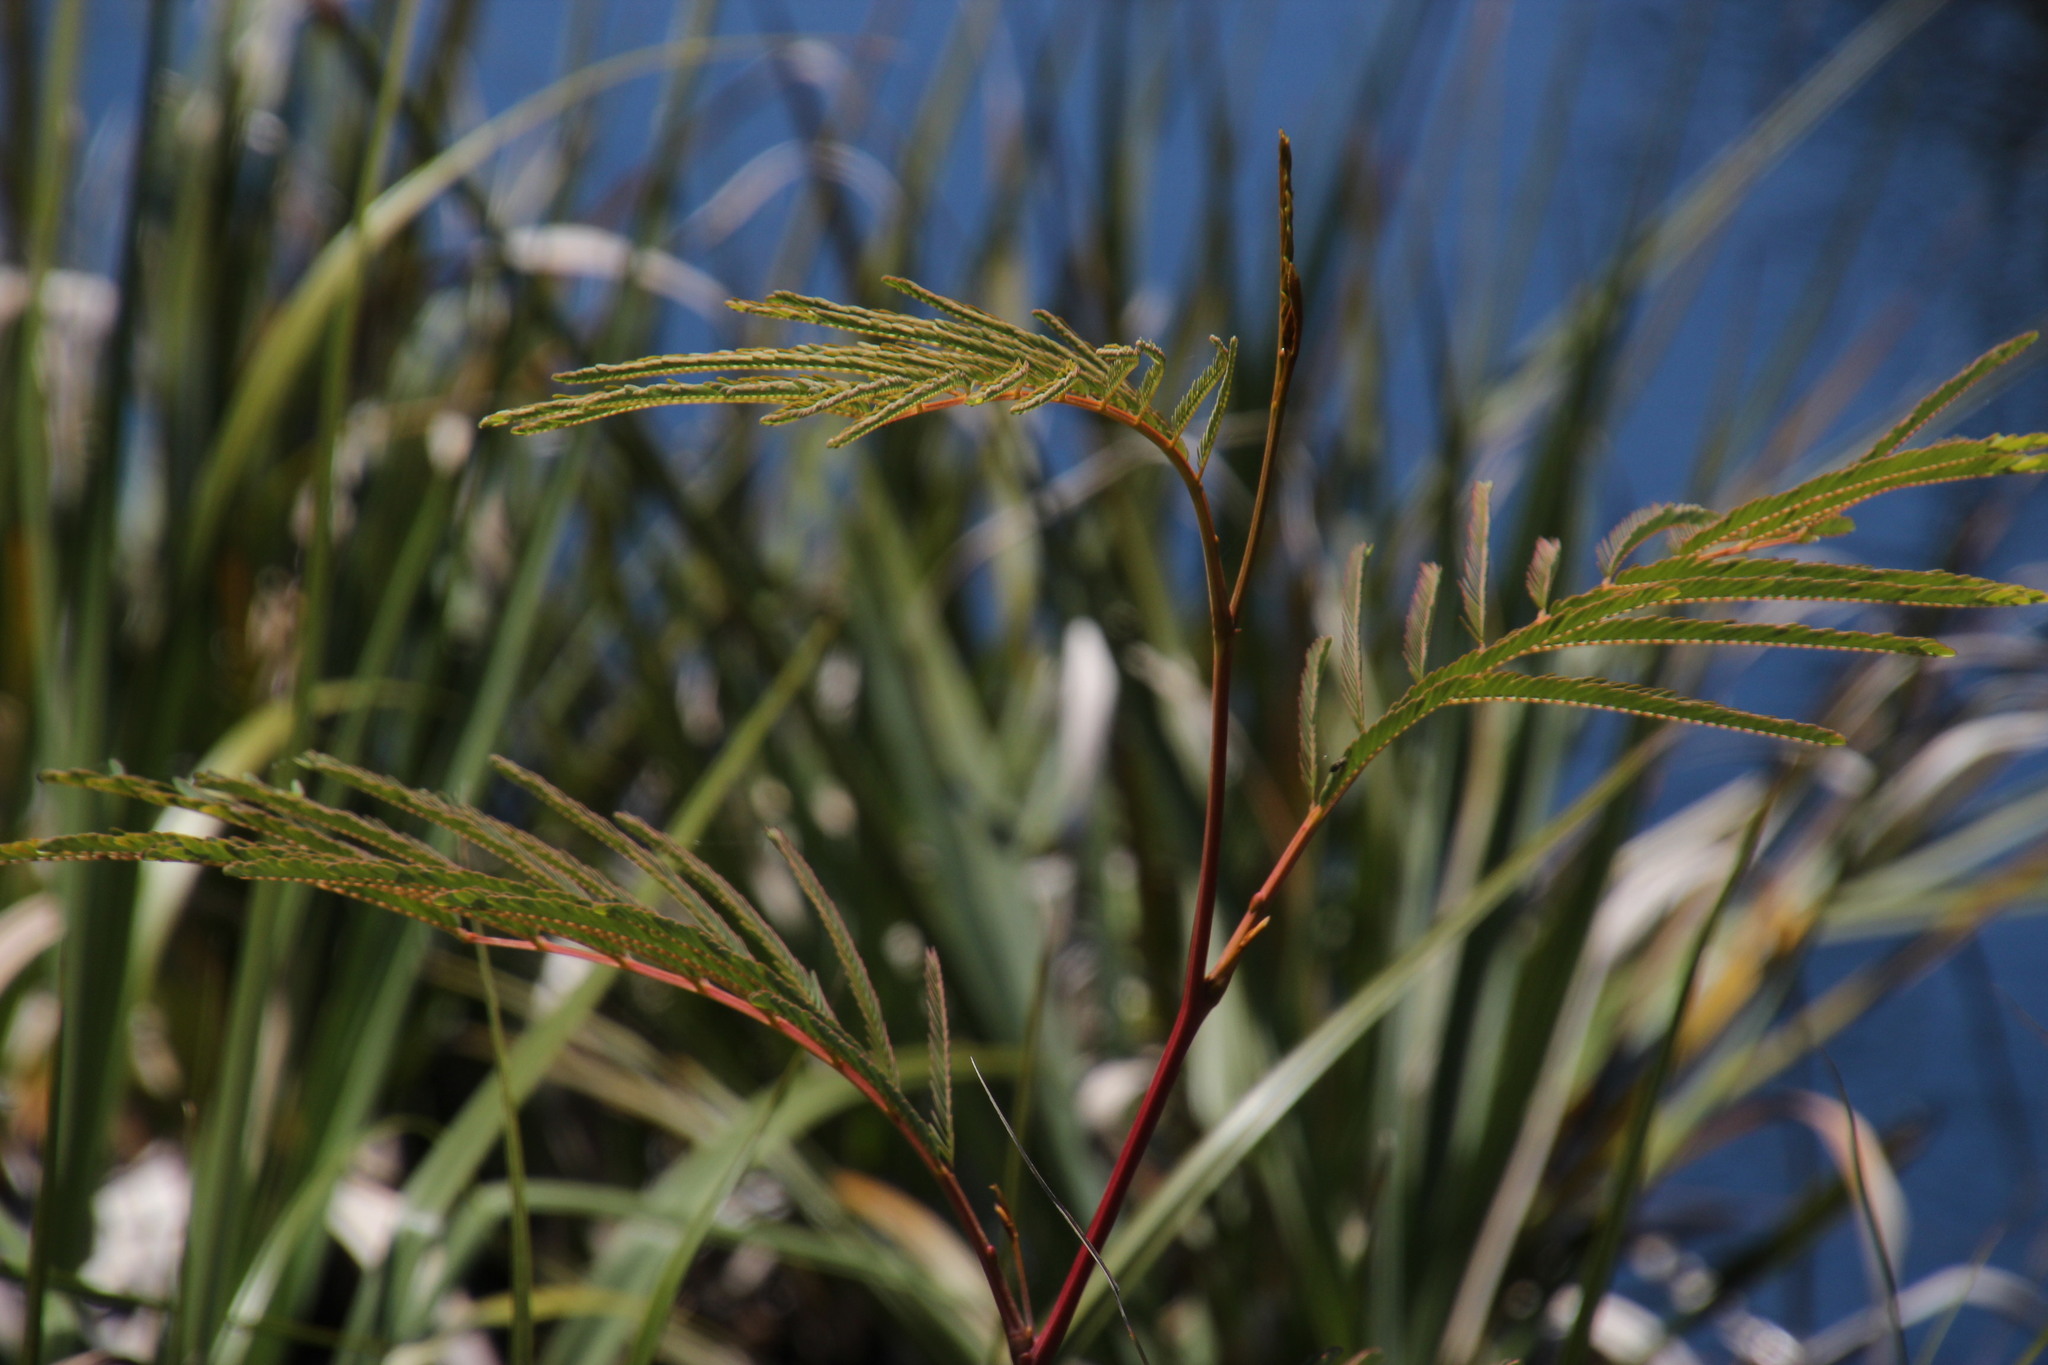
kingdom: Plantae
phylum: Tracheophyta
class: Magnoliopsida
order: Fabales
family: Fabaceae
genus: Paraserianthes
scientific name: Paraserianthes lophantha
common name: Plume albizia
